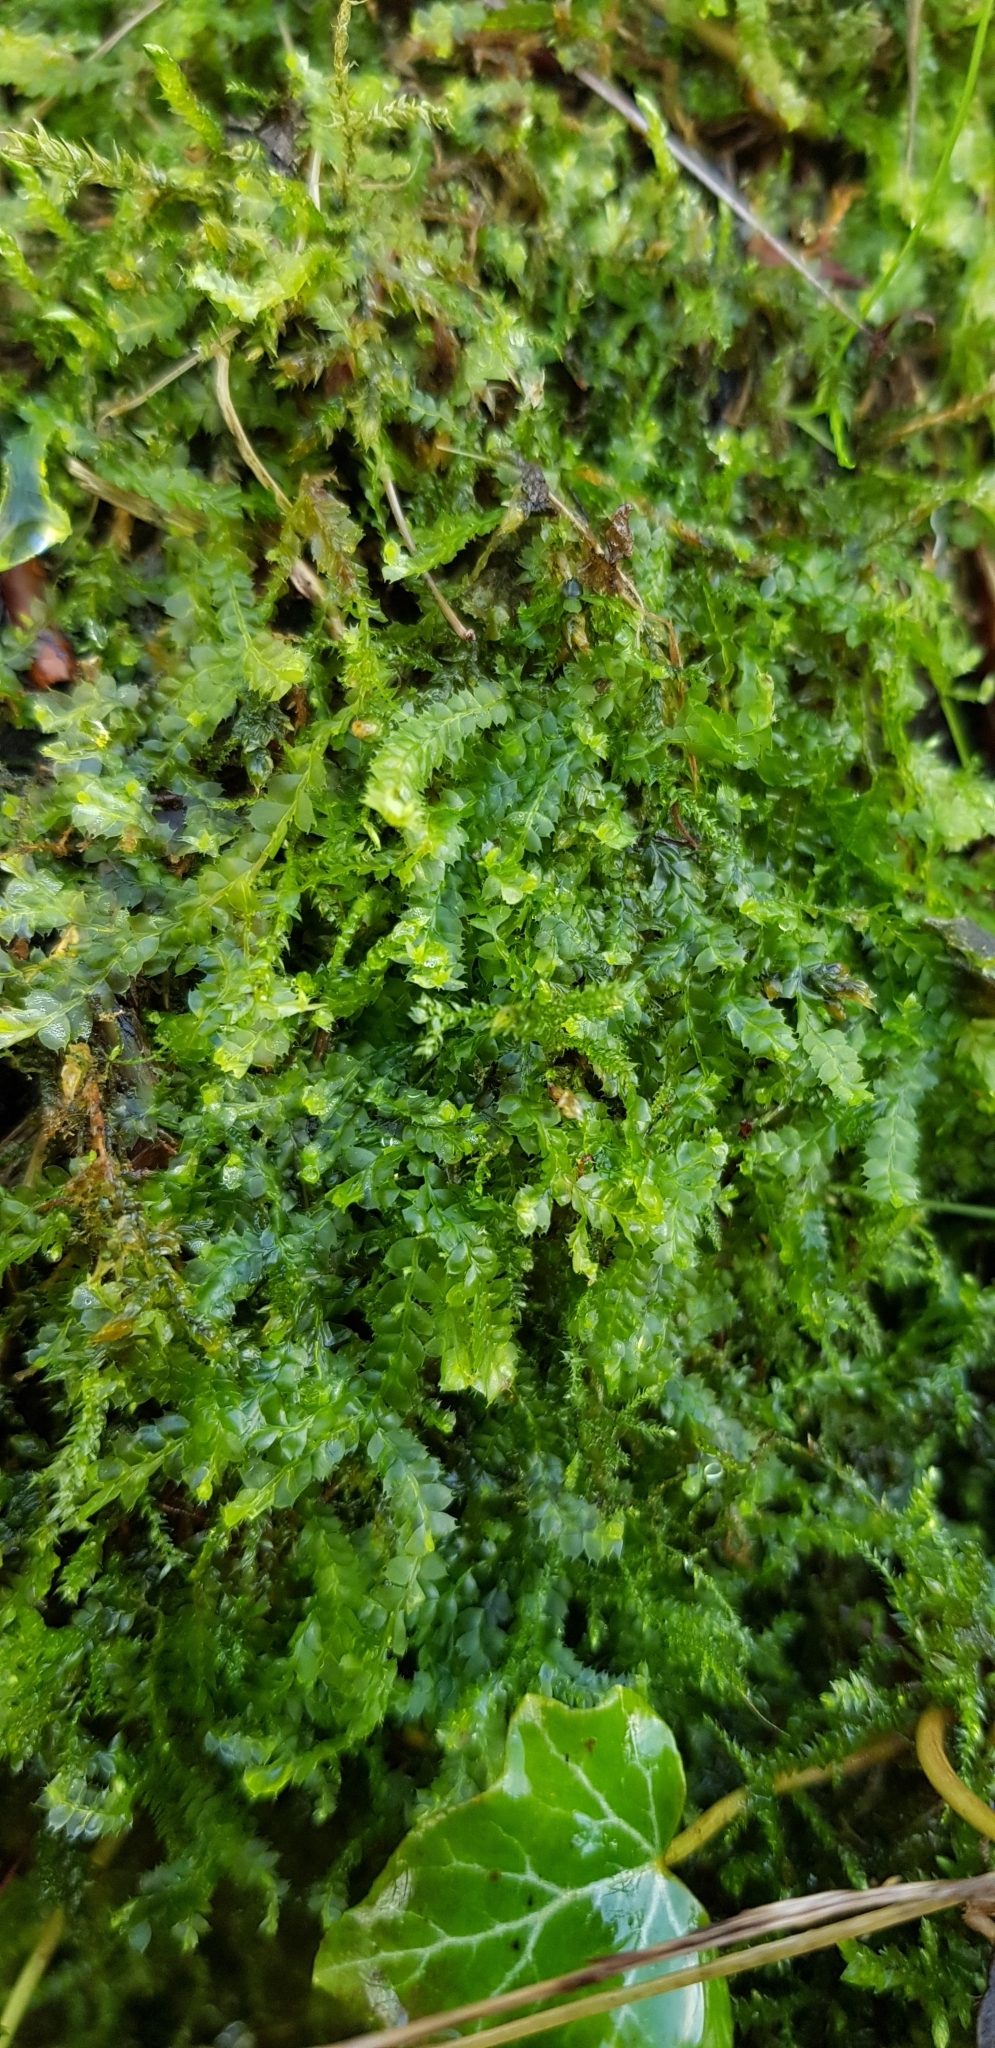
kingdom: Plantae
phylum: Marchantiophyta
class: Jungermanniopsida
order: Jungermanniales
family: Lophocoleaceae
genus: Lophocolea
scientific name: Lophocolea bidentata
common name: Bifid crestwort
